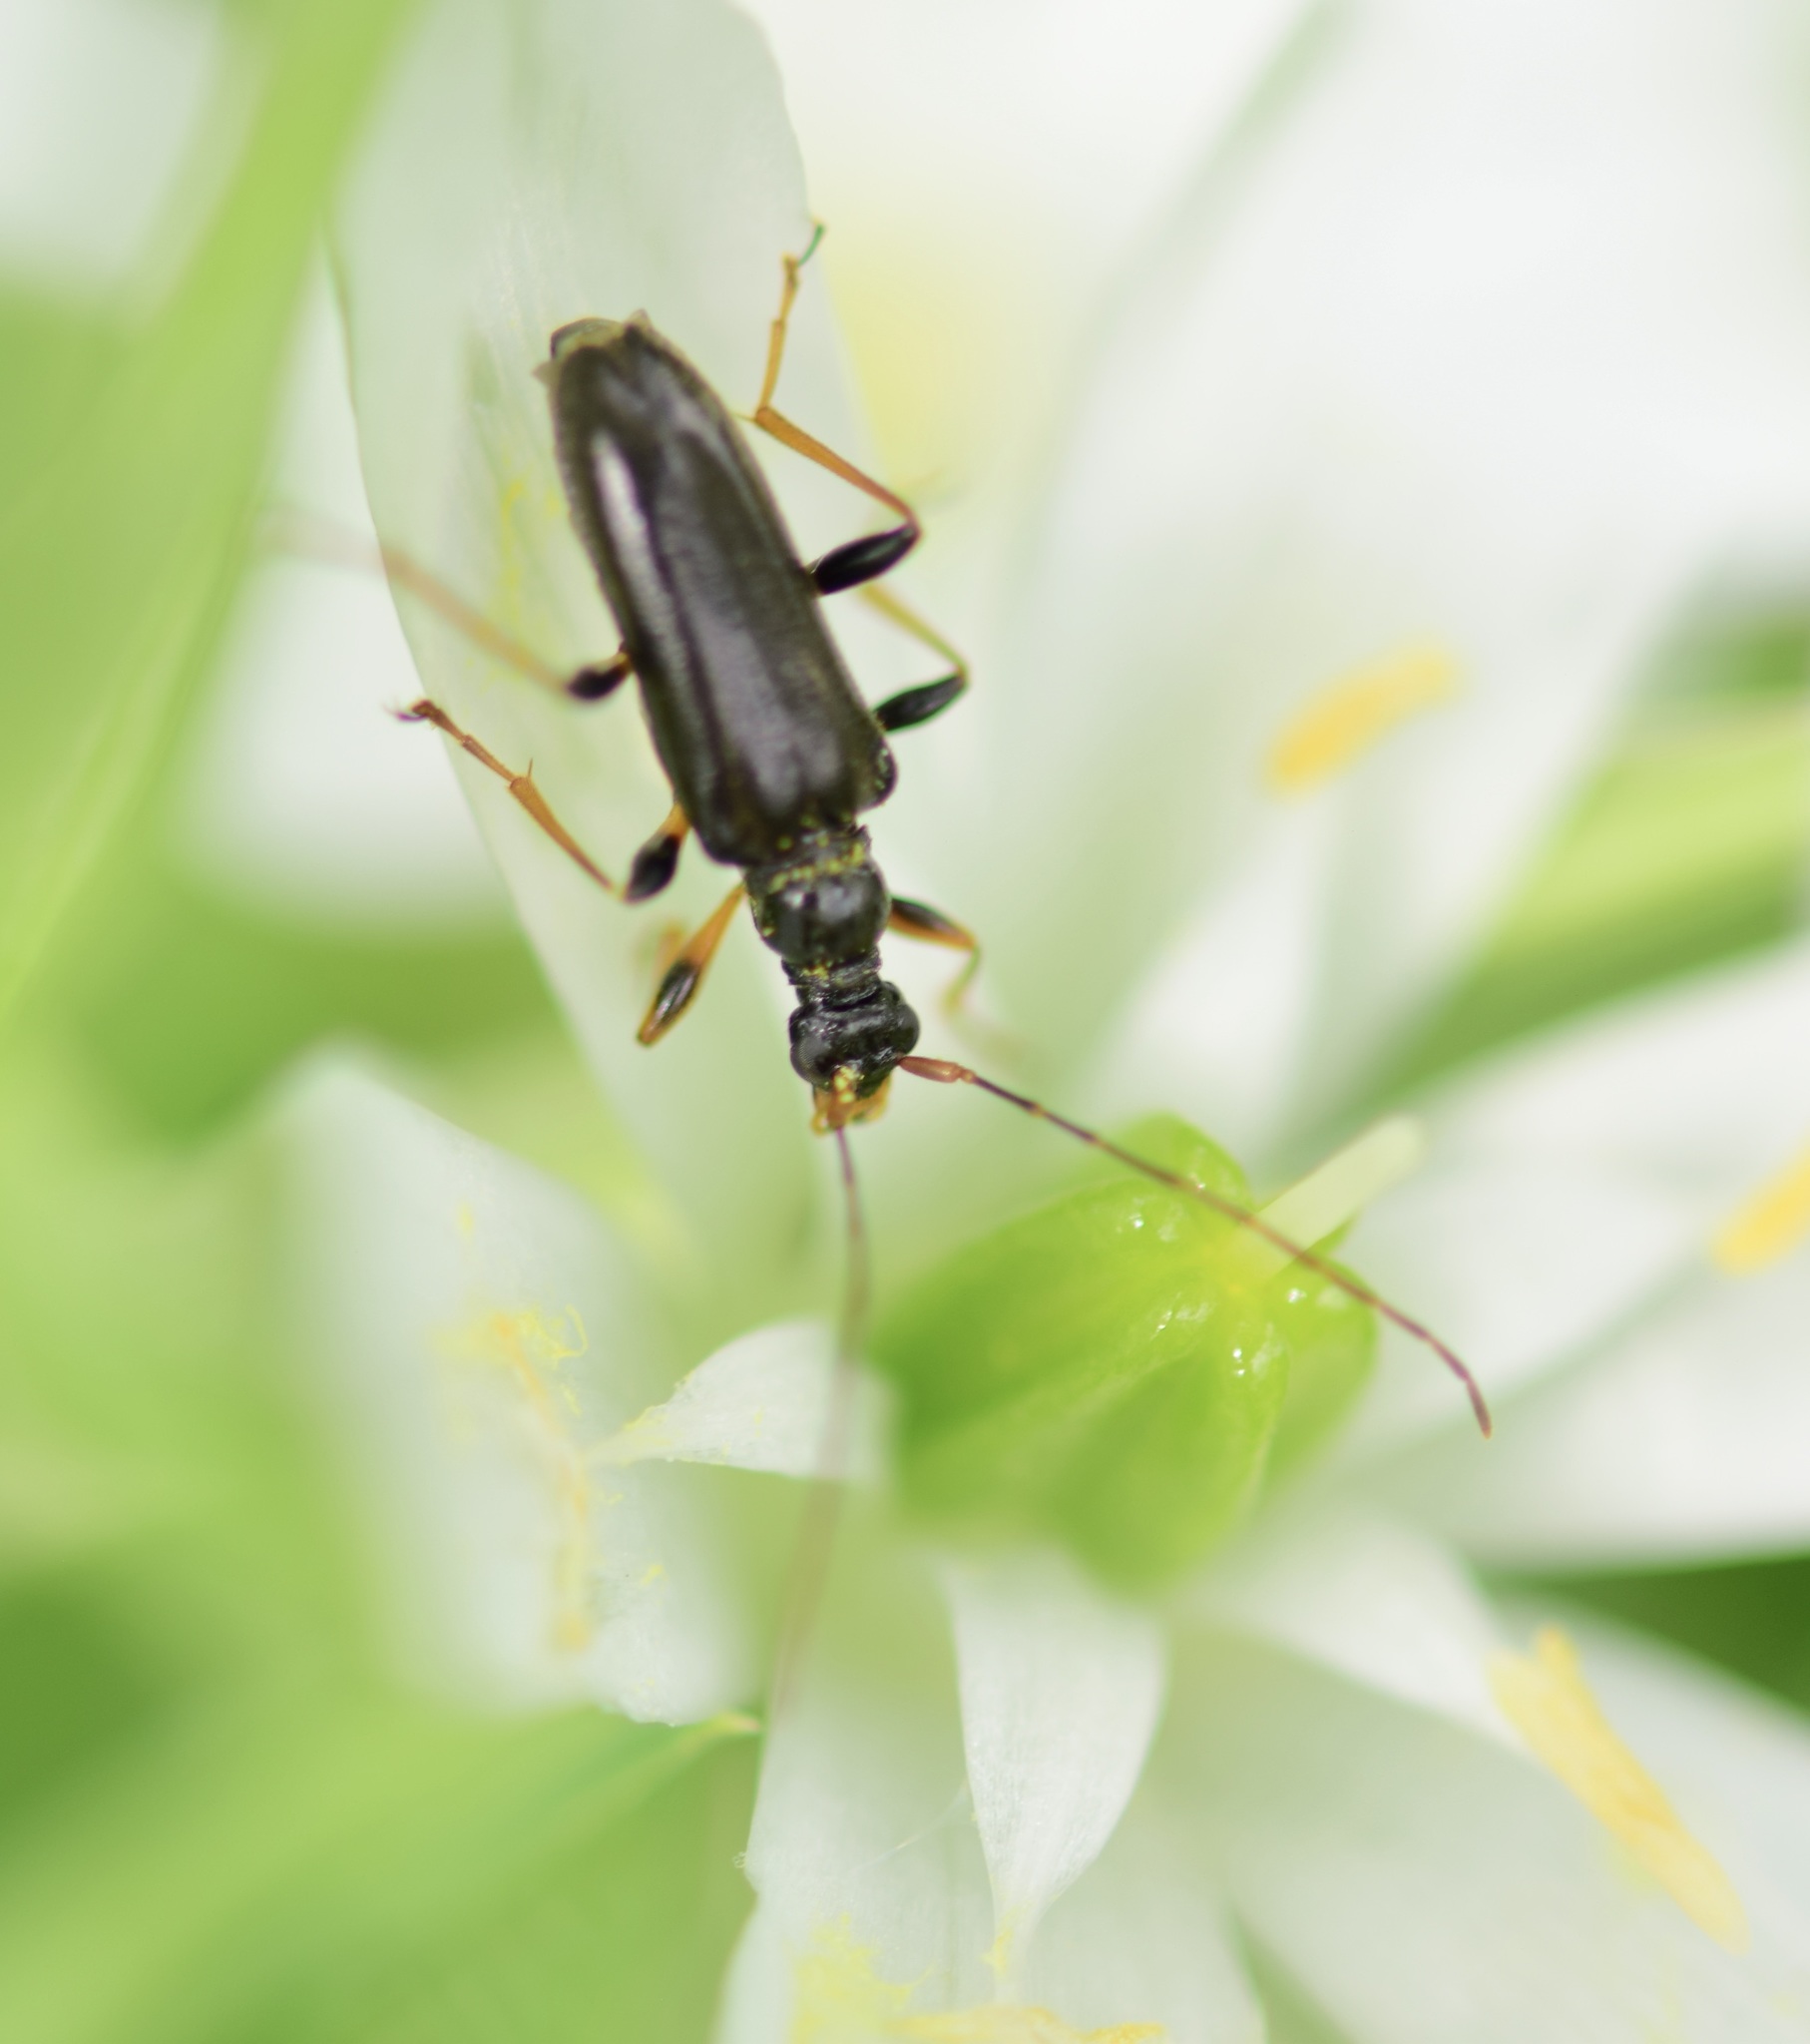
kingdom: Animalia
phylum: Arthropoda
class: Insecta
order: Coleoptera
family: Cerambycidae
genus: Pidonia
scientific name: Pidonia ruficollis
